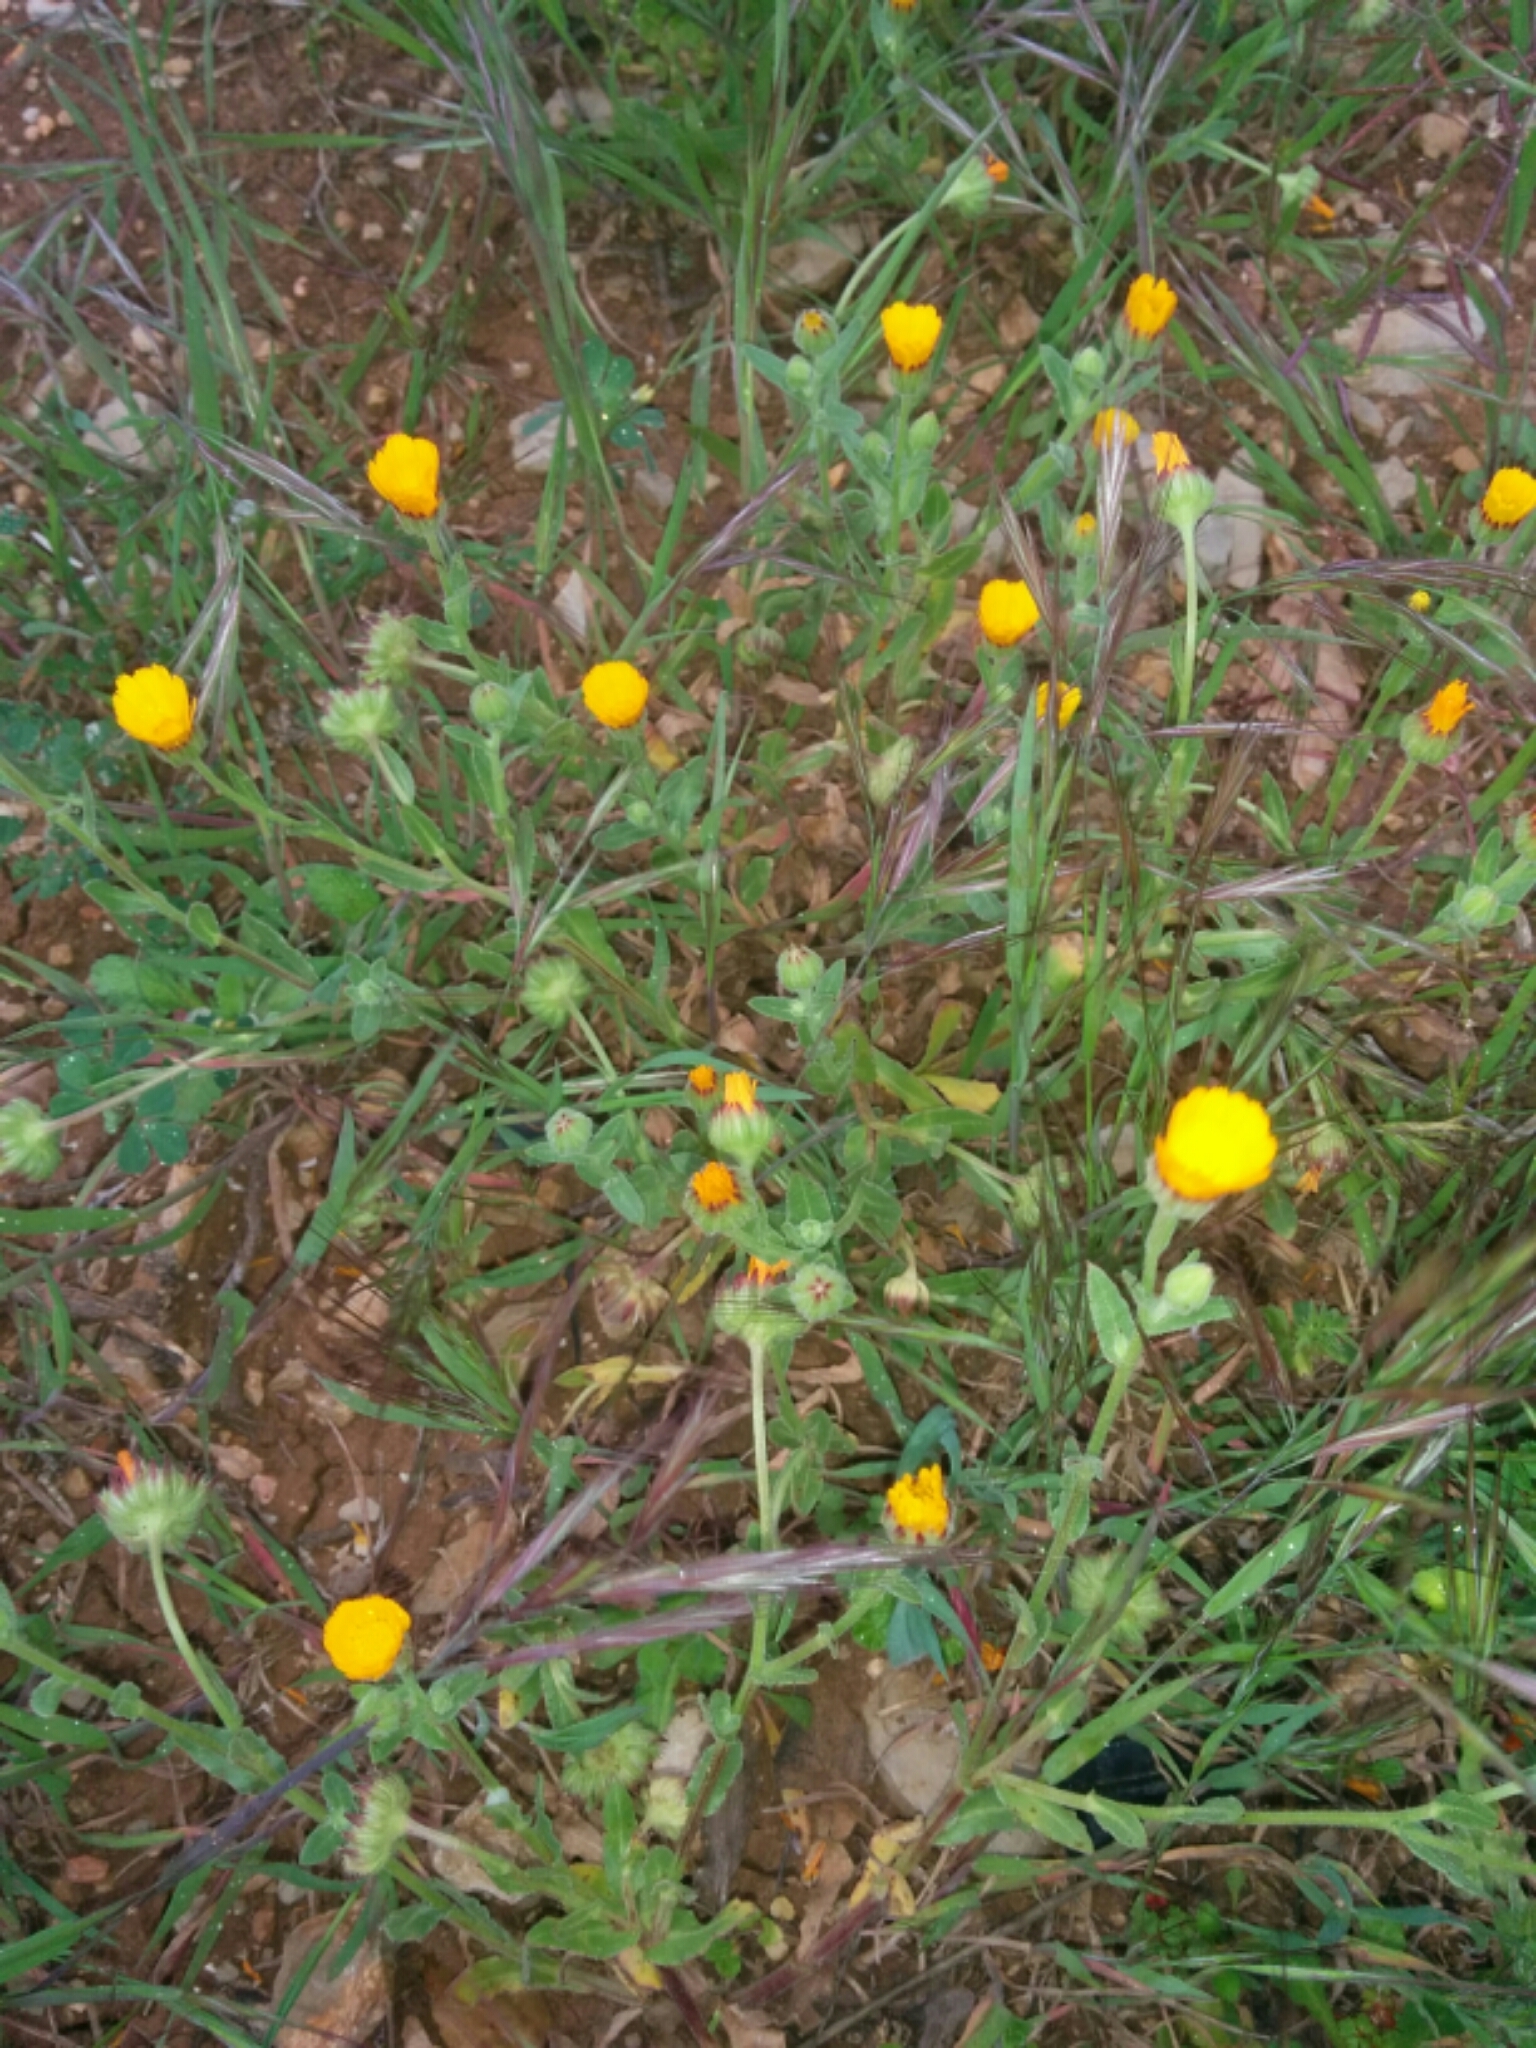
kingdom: Plantae
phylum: Tracheophyta
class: Magnoliopsida
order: Asterales
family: Asteraceae
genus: Calendula
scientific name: Calendula arvensis
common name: Field marigold
